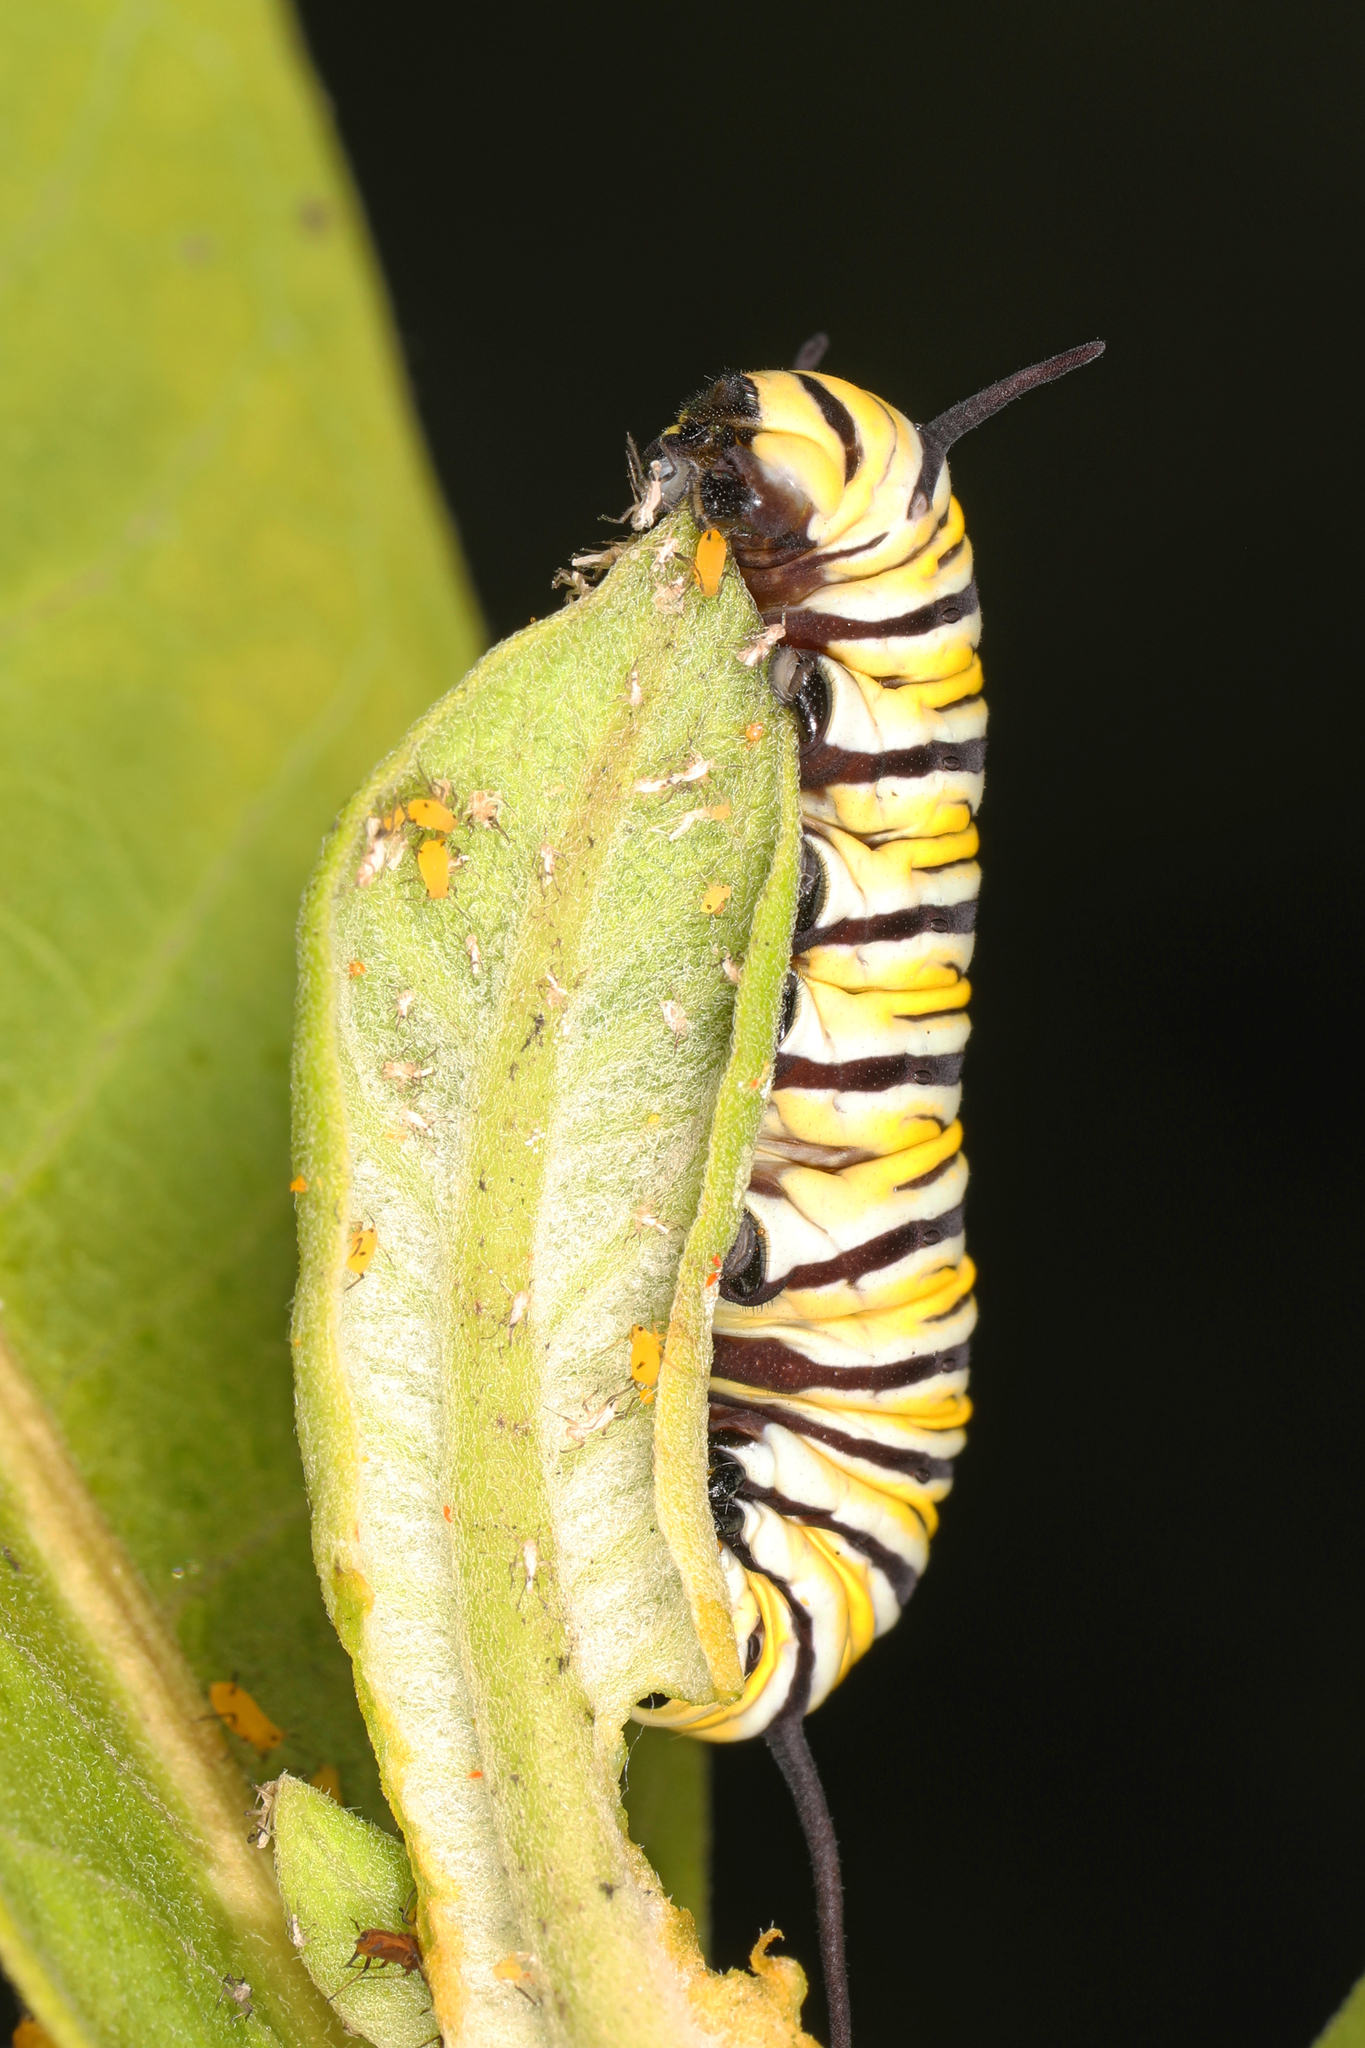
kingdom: Animalia
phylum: Arthropoda
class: Insecta
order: Lepidoptera
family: Nymphalidae
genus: Danaus
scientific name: Danaus plexippus
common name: Monarch
